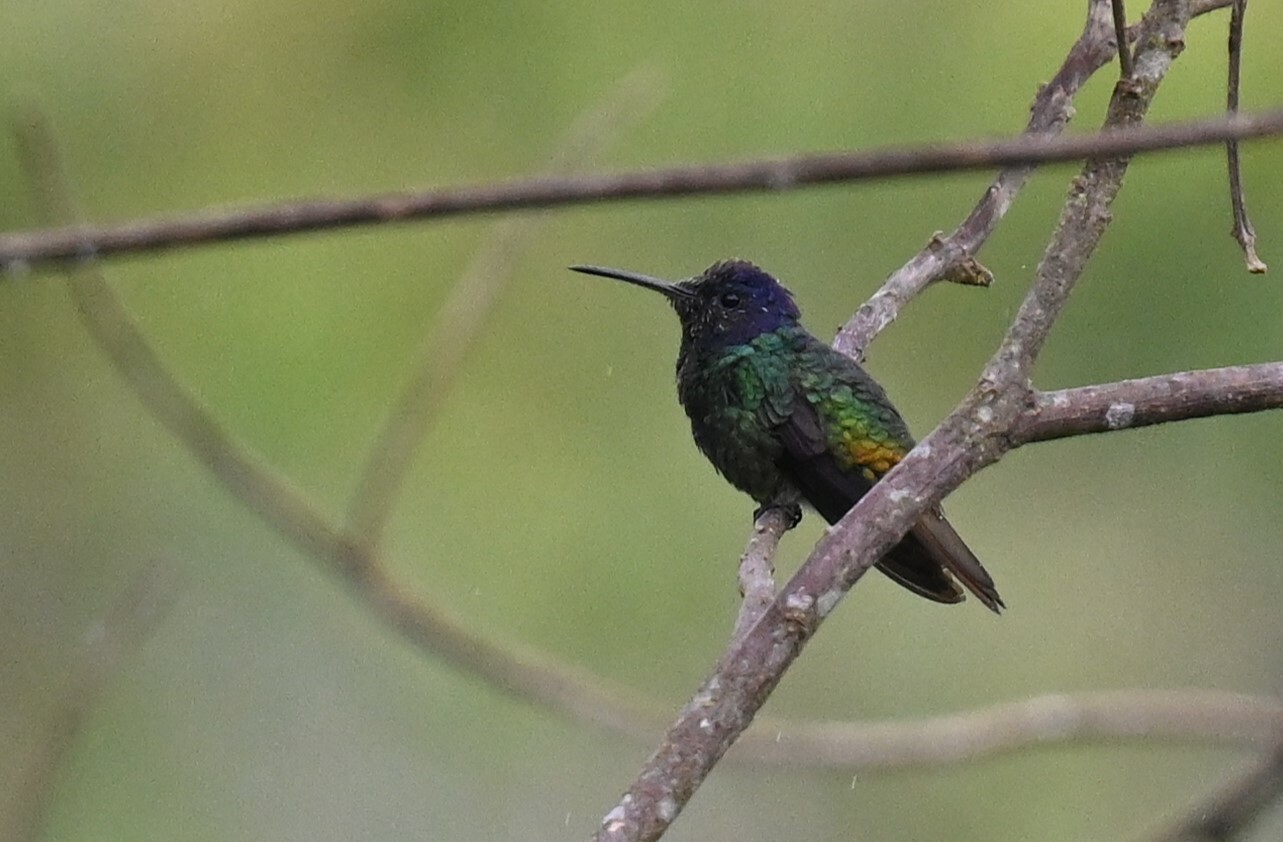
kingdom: Animalia
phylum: Chordata
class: Aves
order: Apodiformes
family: Trochilidae
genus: Chrysuronia
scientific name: Chrysuronia oenone
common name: Golden-tailed sapphire
